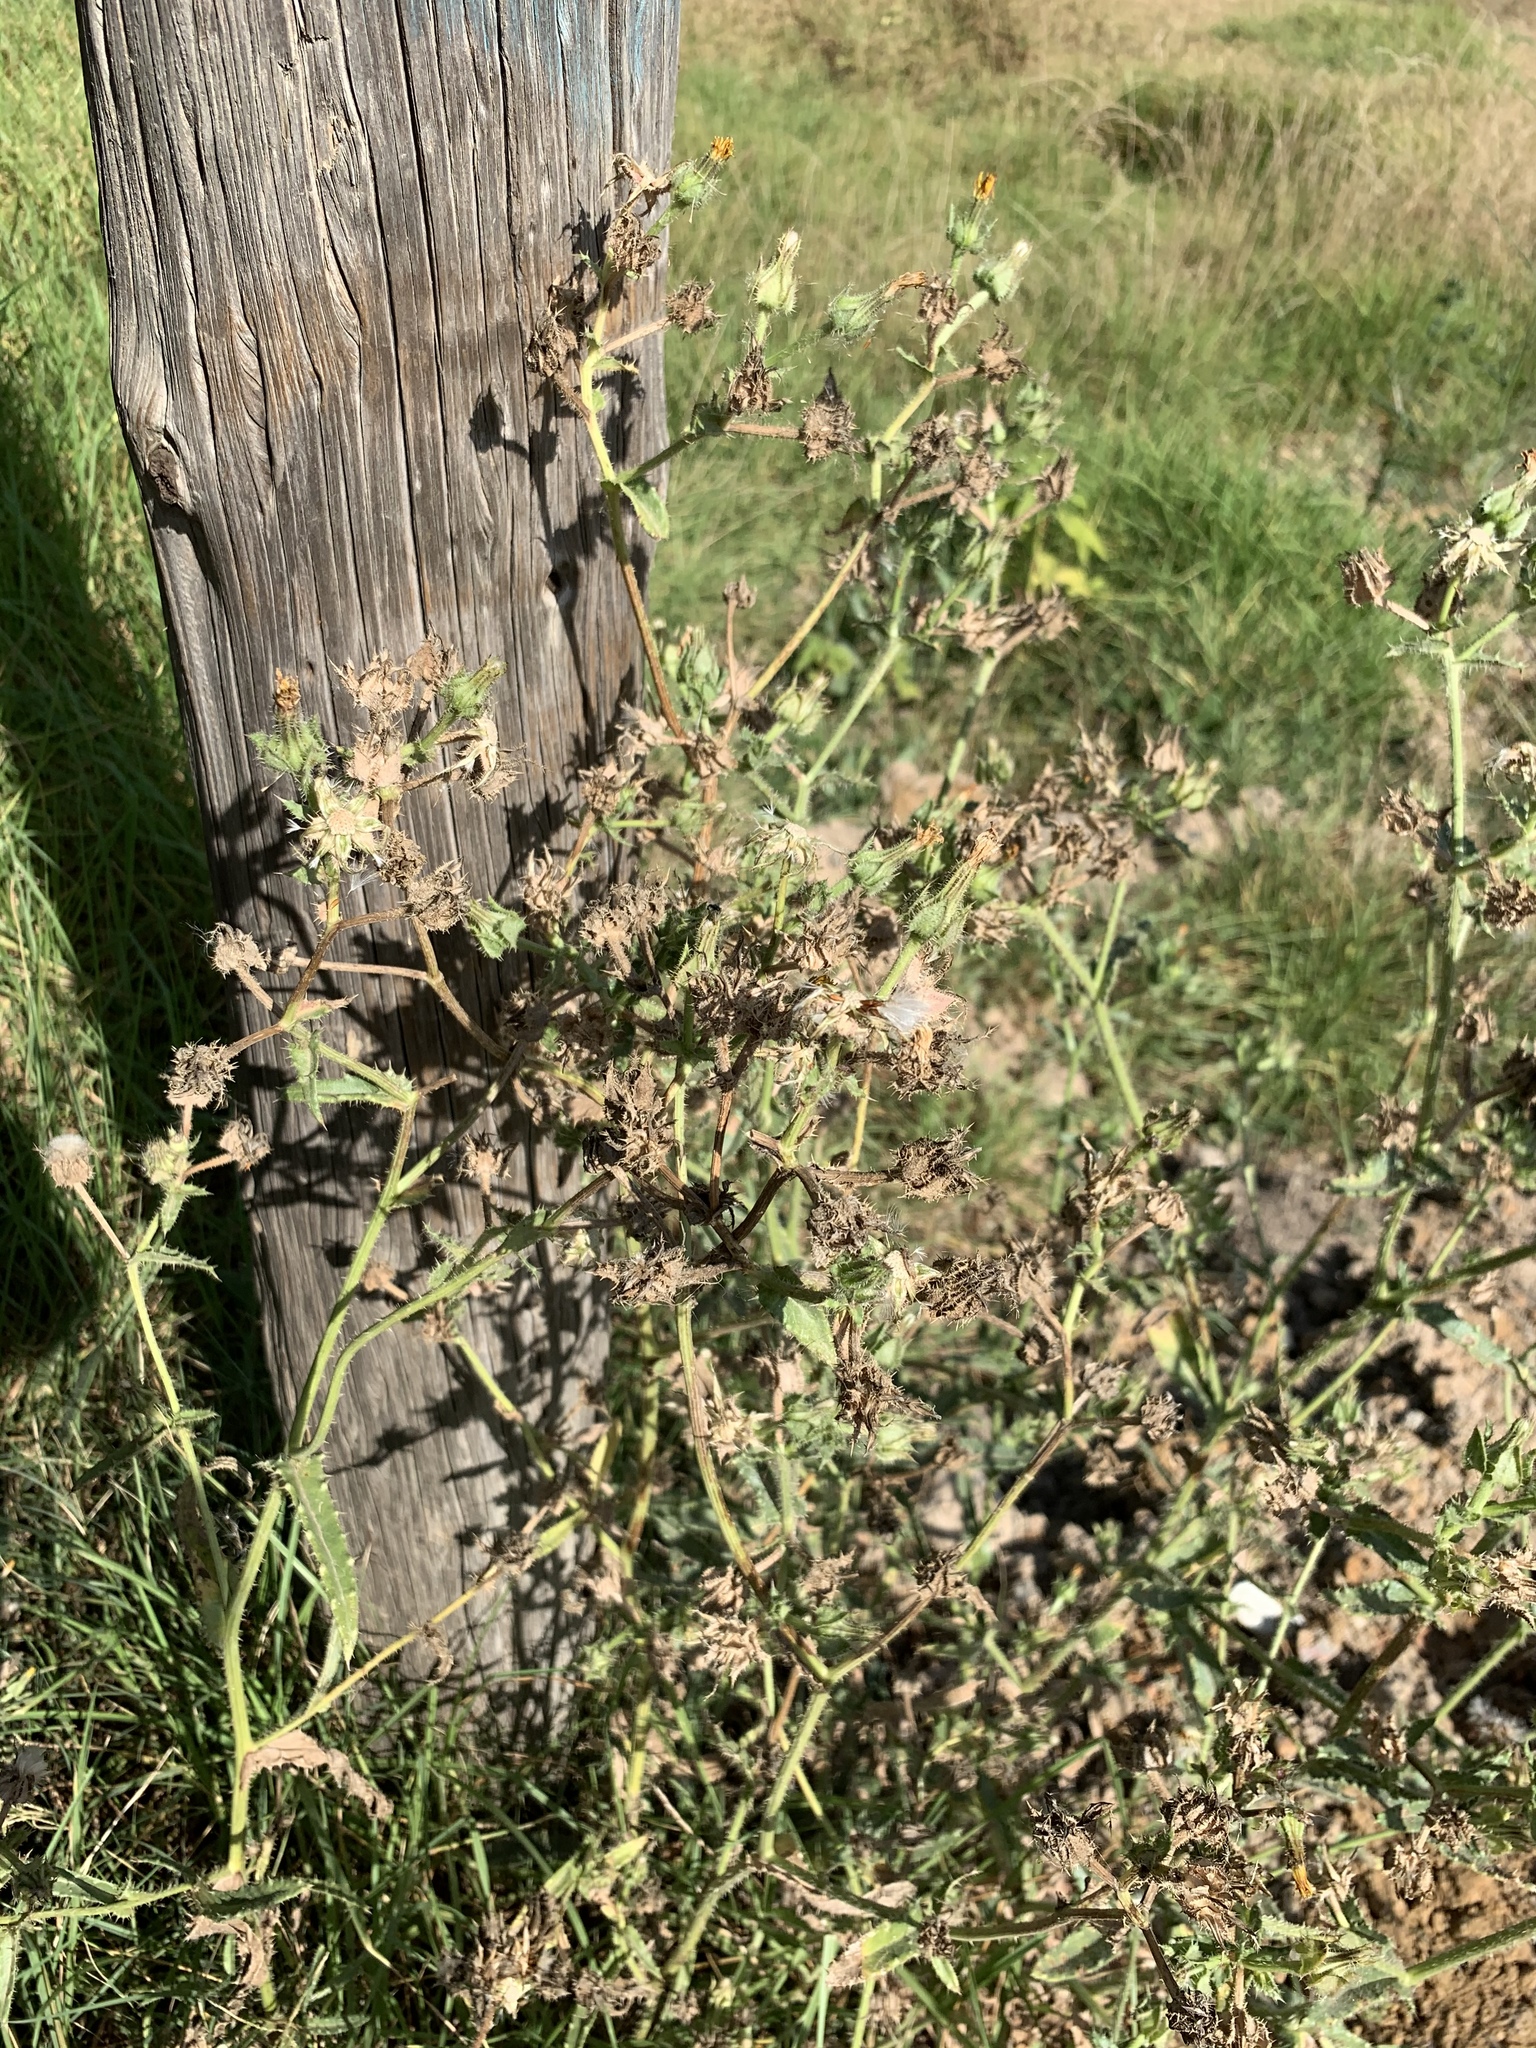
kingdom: Plantae
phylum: Tracheophyta
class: Magnoliopsida
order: Asterales
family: Asteraceae
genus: Helminthotheca
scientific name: Helminthotheca echioides
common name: Ox-tongue
